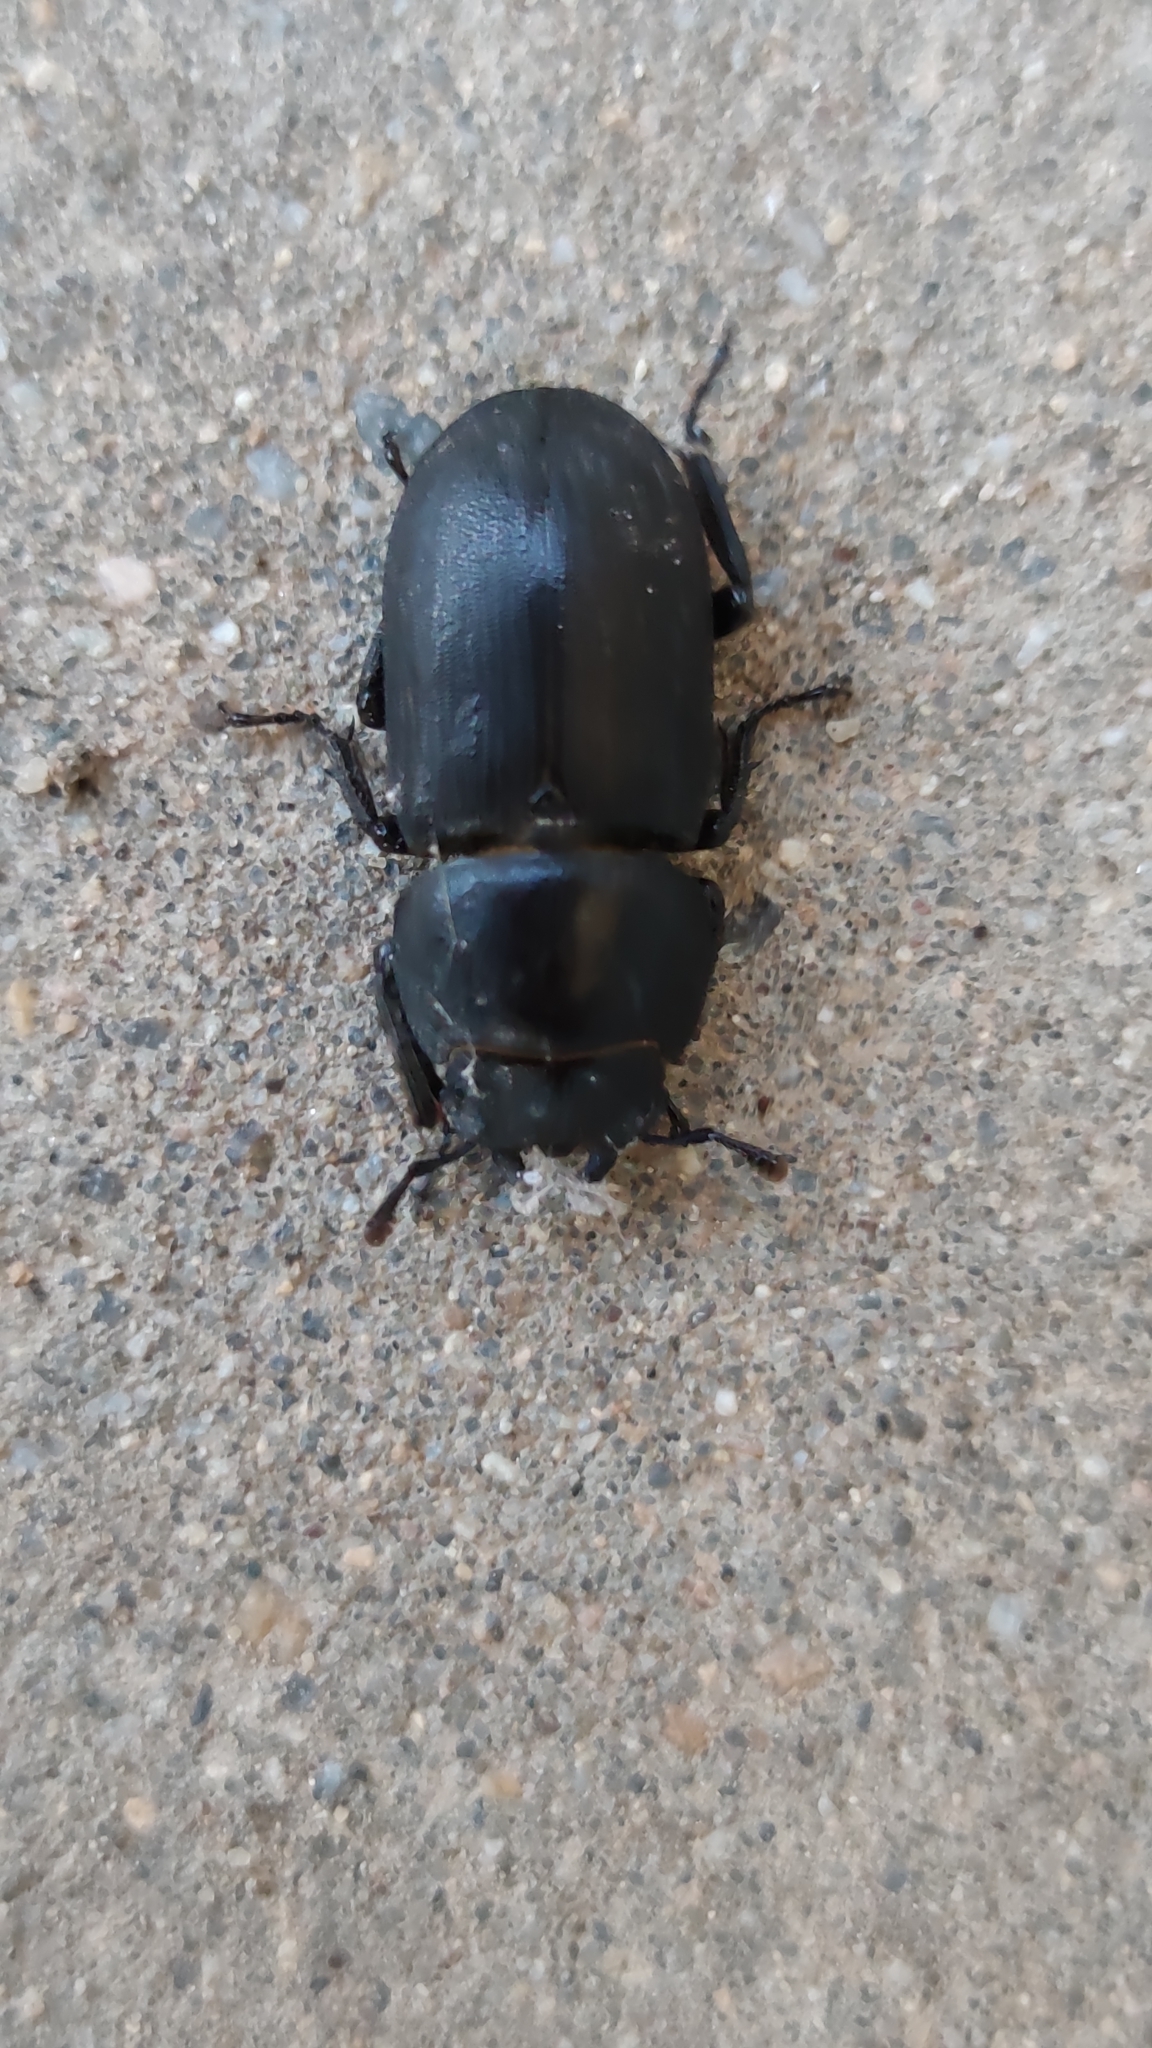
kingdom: Animalia
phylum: Arthropoda
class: Insecta
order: Coleoptera
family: Lucanidae
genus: Dorcus
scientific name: Dorcus parallelipipedus
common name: Lesser stag beetle
